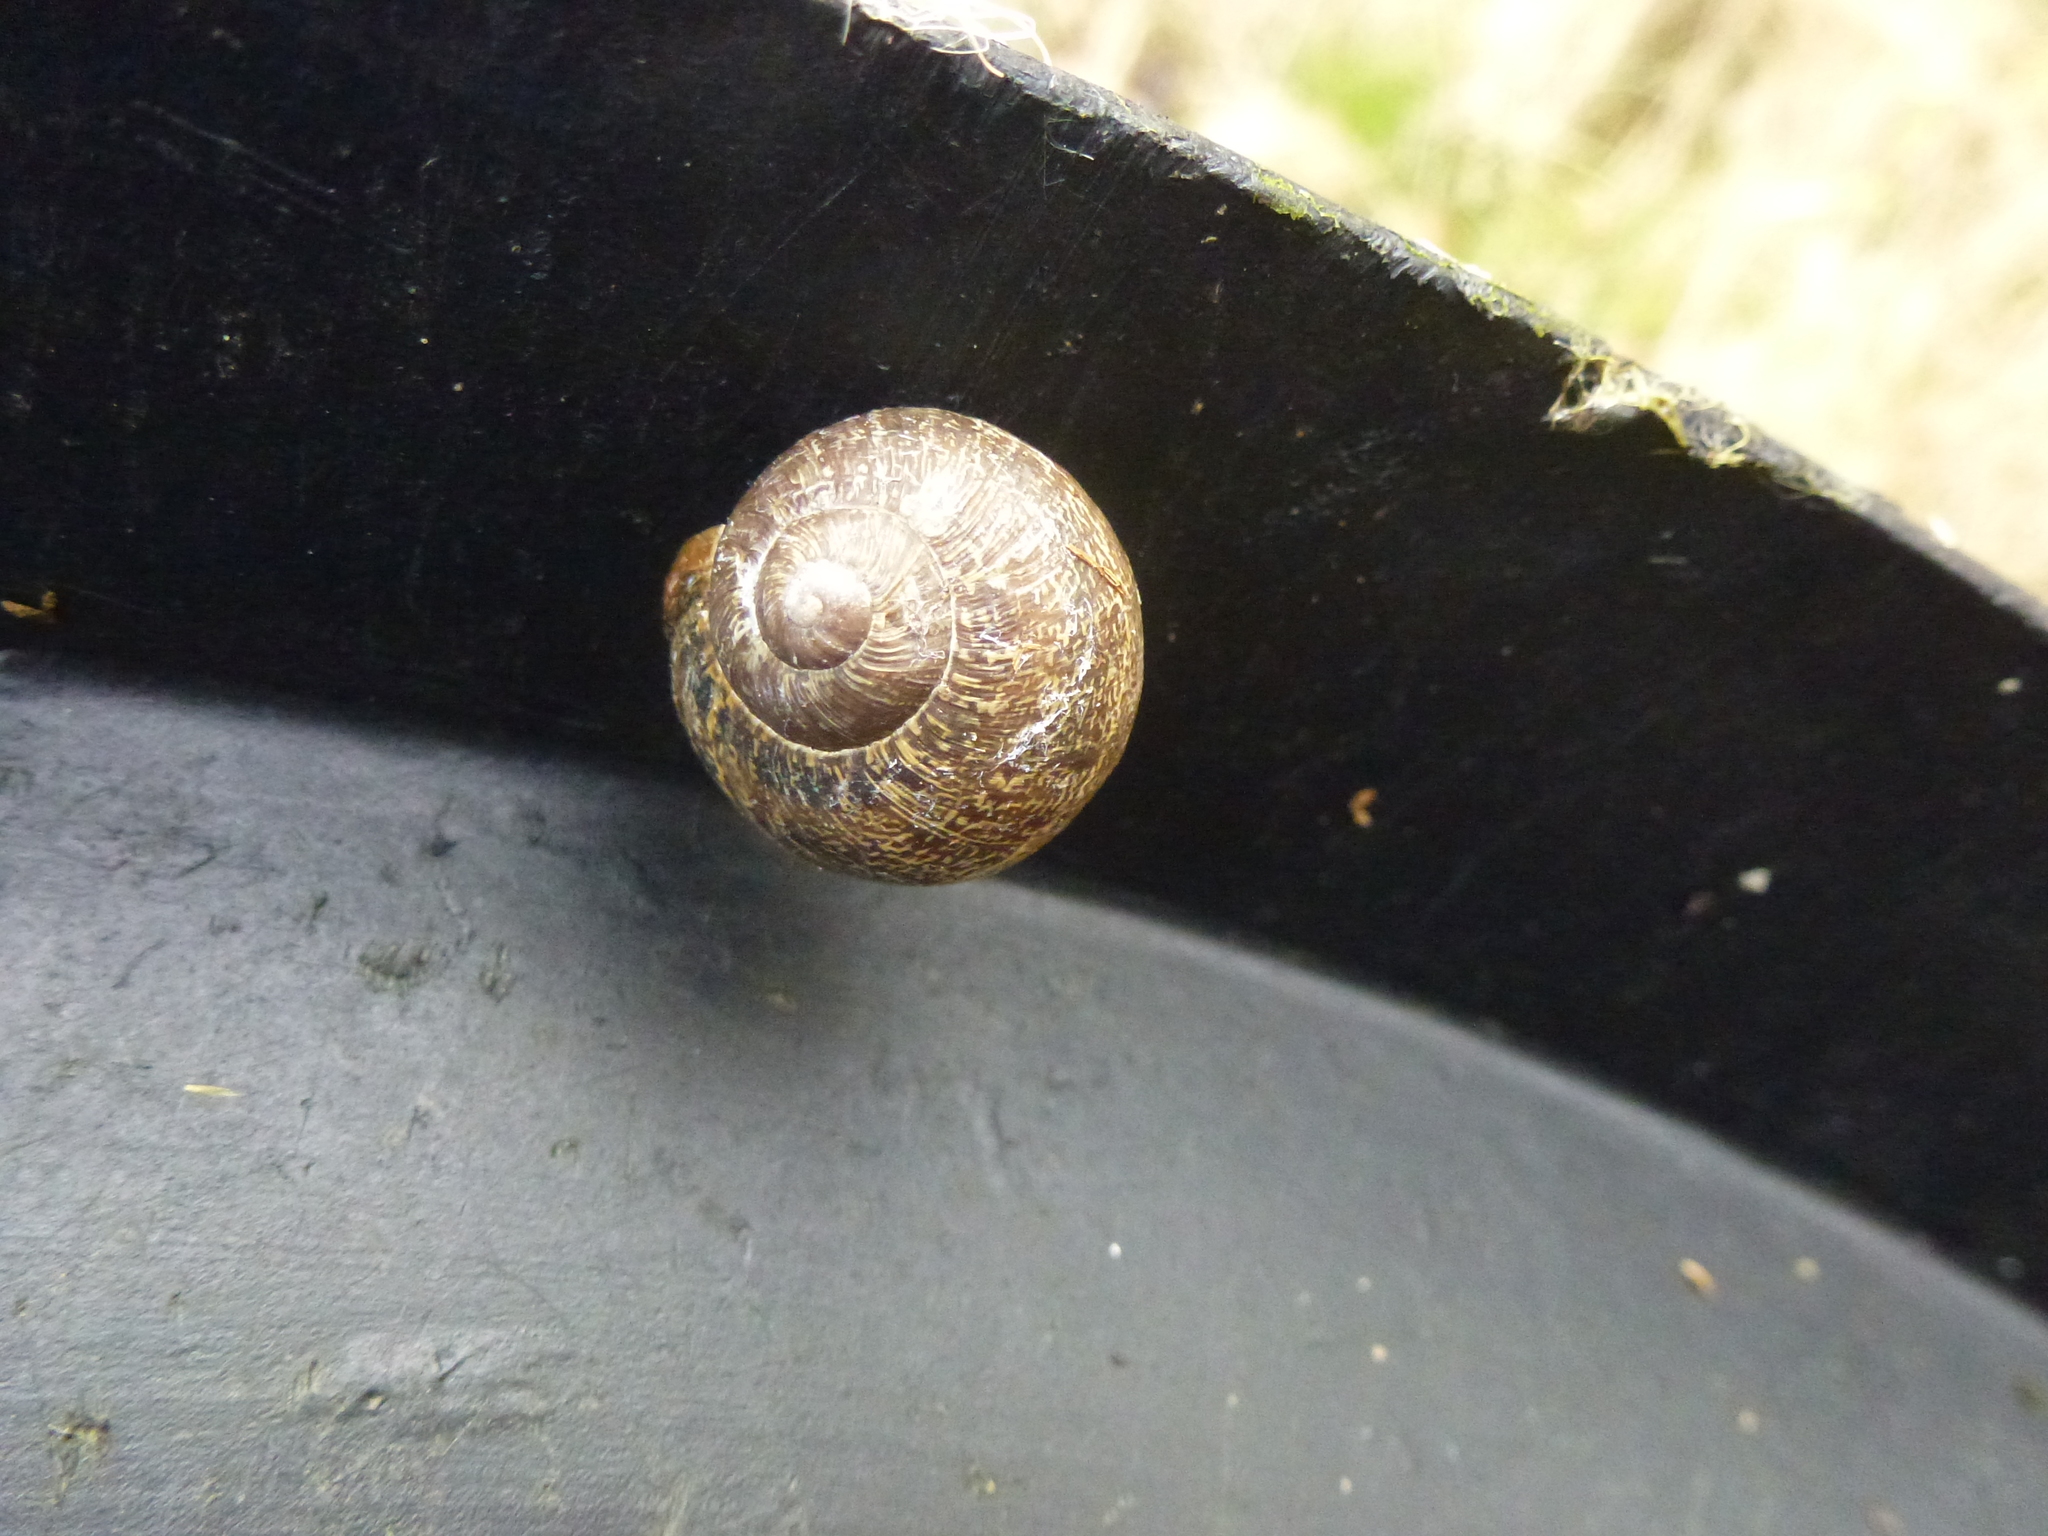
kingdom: Animalia
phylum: Mollusca
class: Gastropoda
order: Stylommatophora
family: Helicidae
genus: Cornu
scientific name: Cornu aspersum
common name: Brown garden snail
